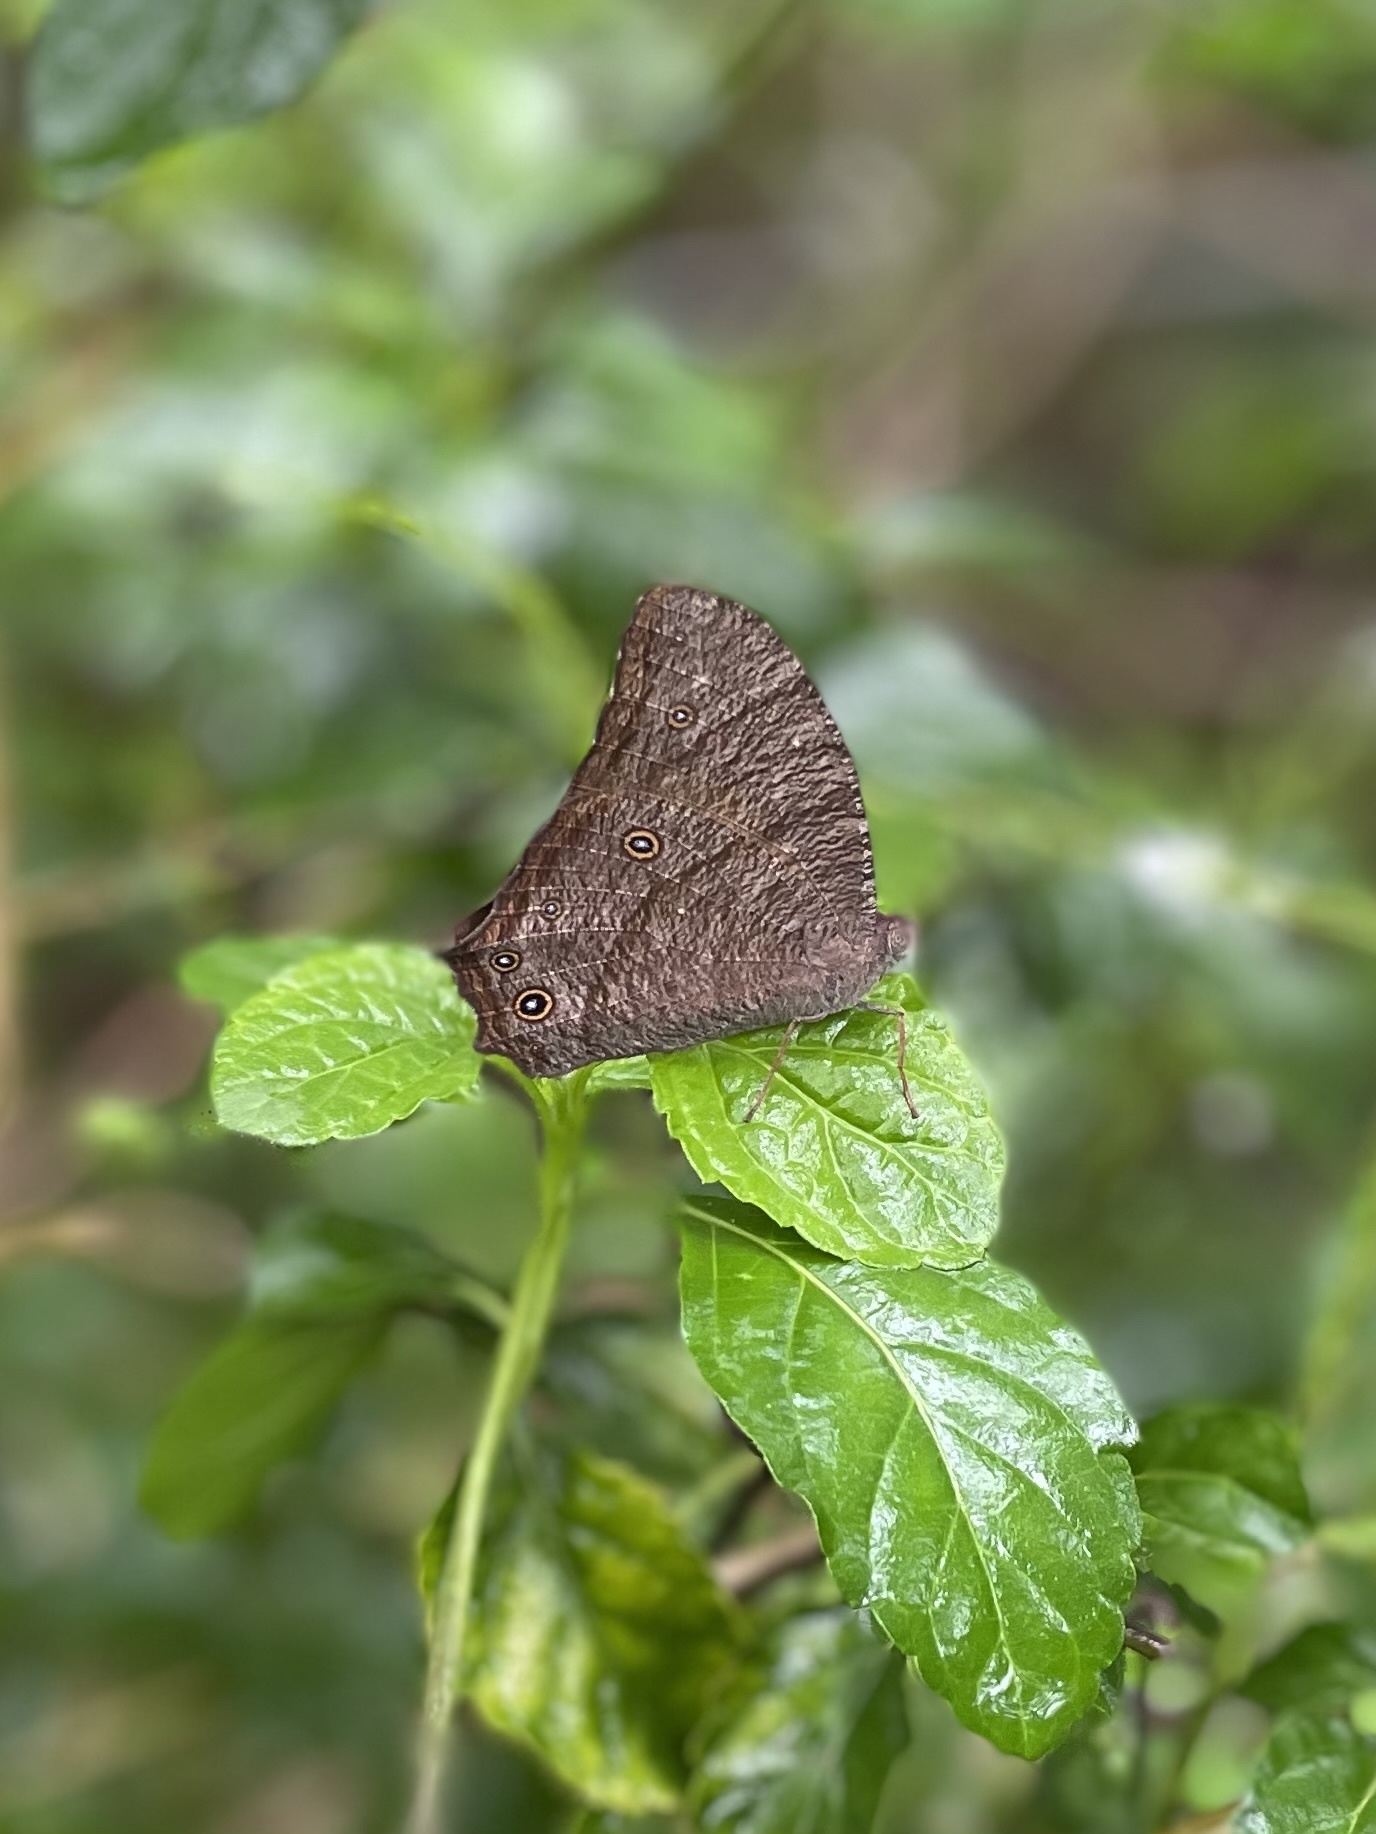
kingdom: Animalia
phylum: Arthropoda
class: Insecta
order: Lepidoptera
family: Nymphalidae
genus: Melanitis
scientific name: Melanitis leda
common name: Twilight brown
